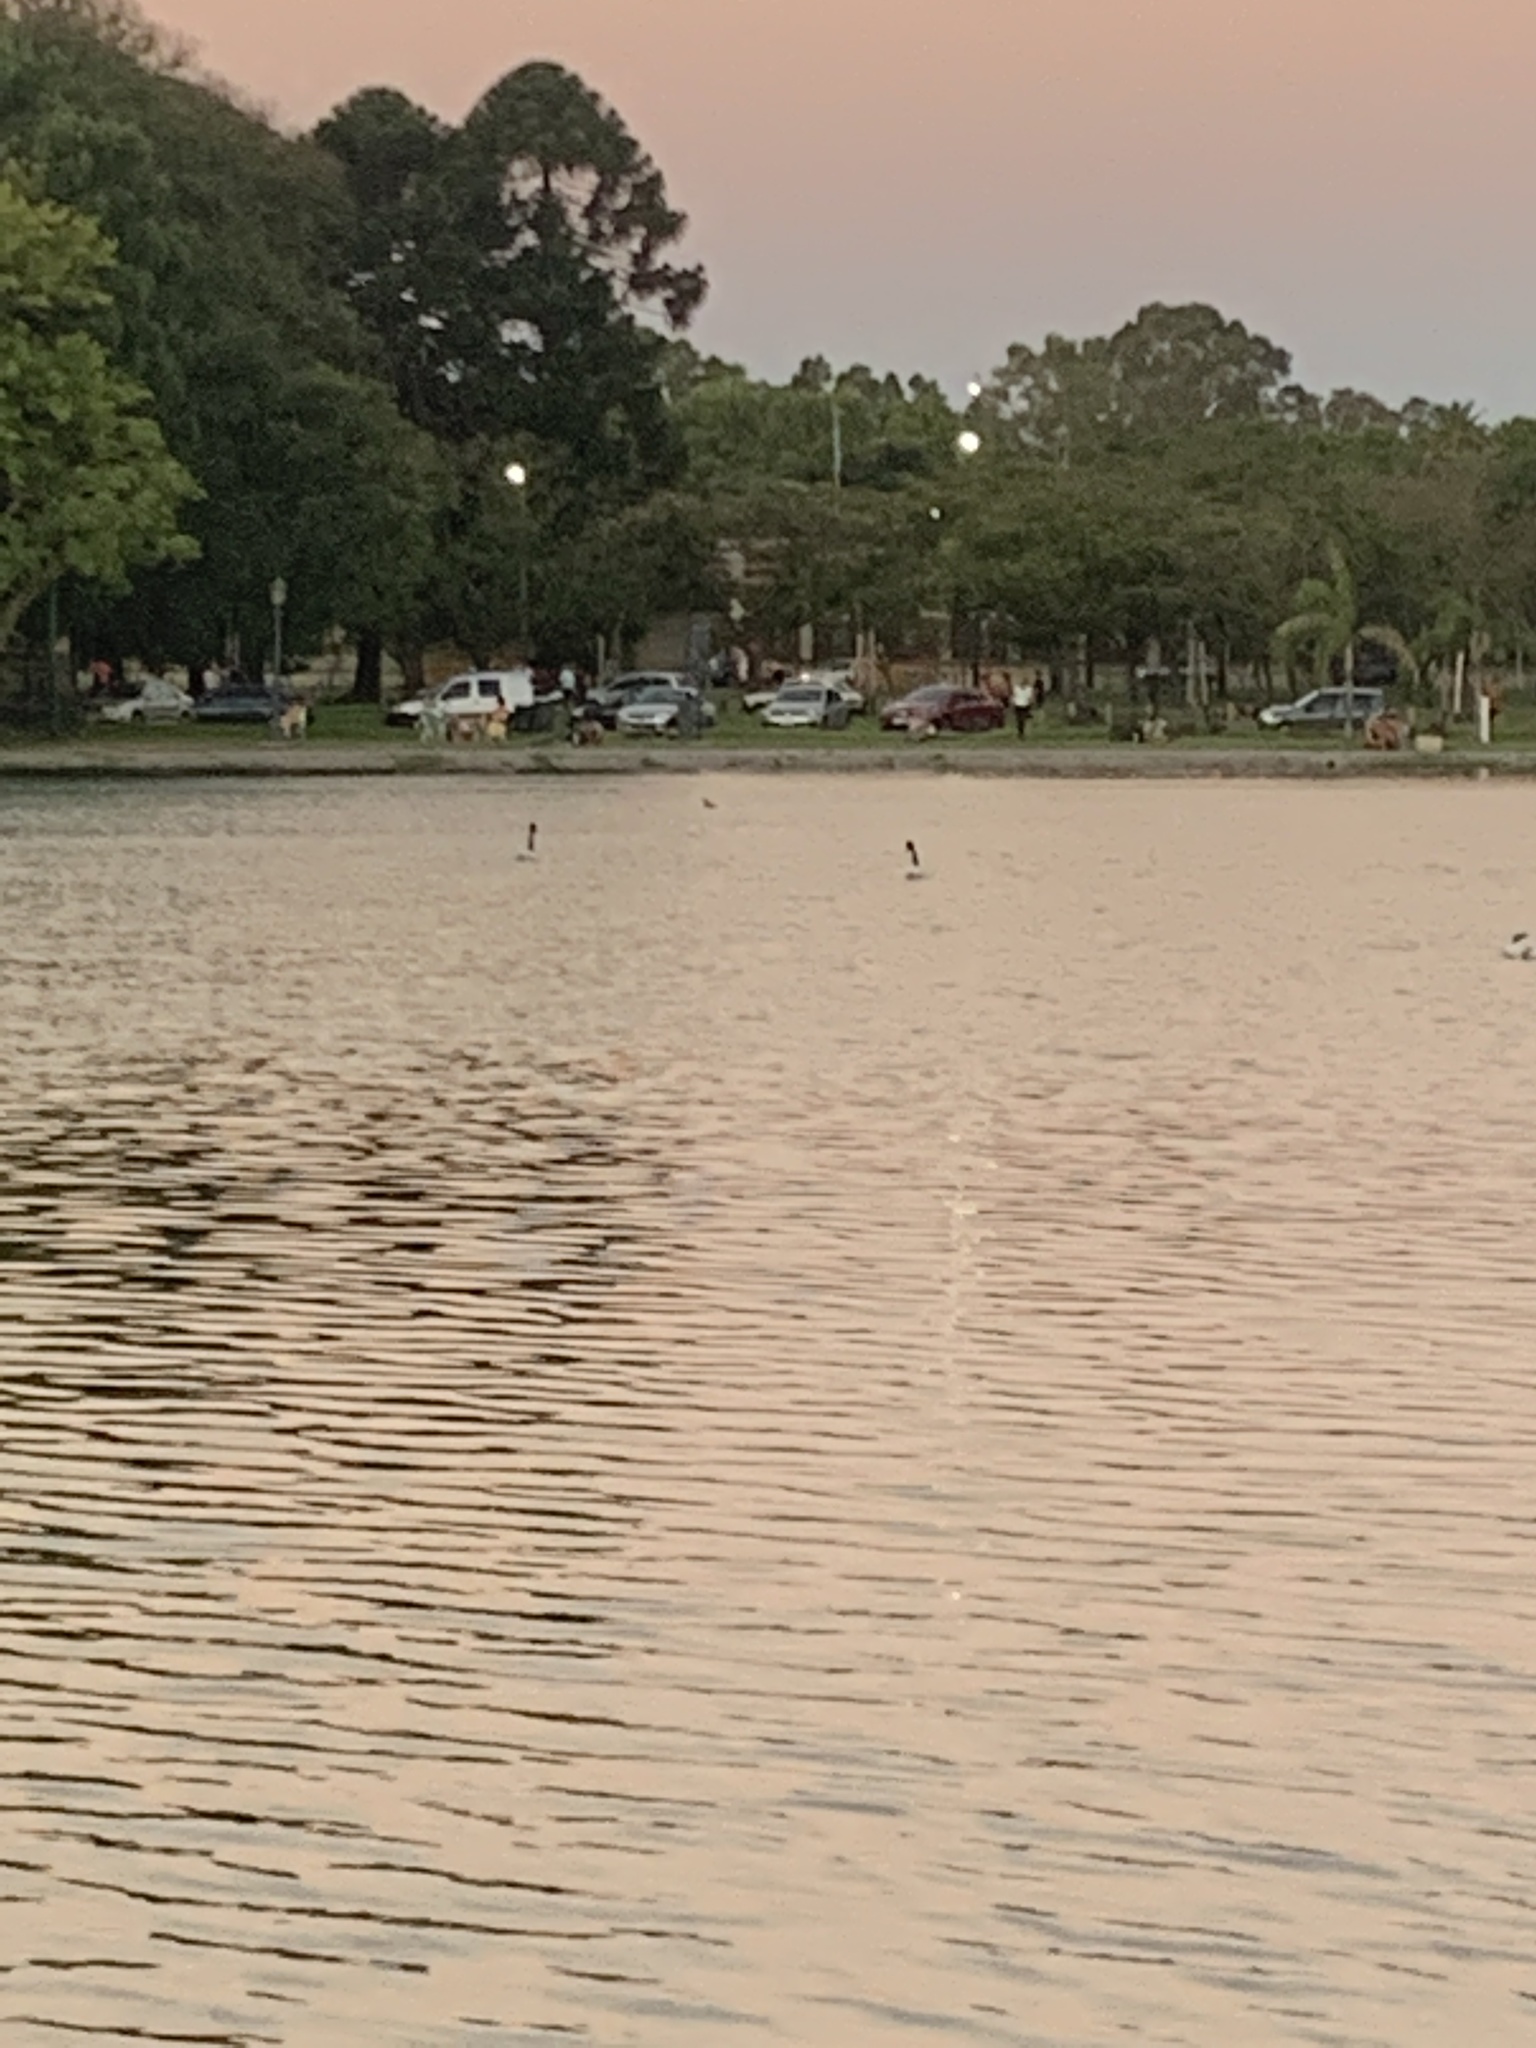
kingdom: Animalia
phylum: Chordata
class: Aves
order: Anseriformes
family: Anatidae
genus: Cygnus
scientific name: Cygnus melancoryphus
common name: Black-necked swan
